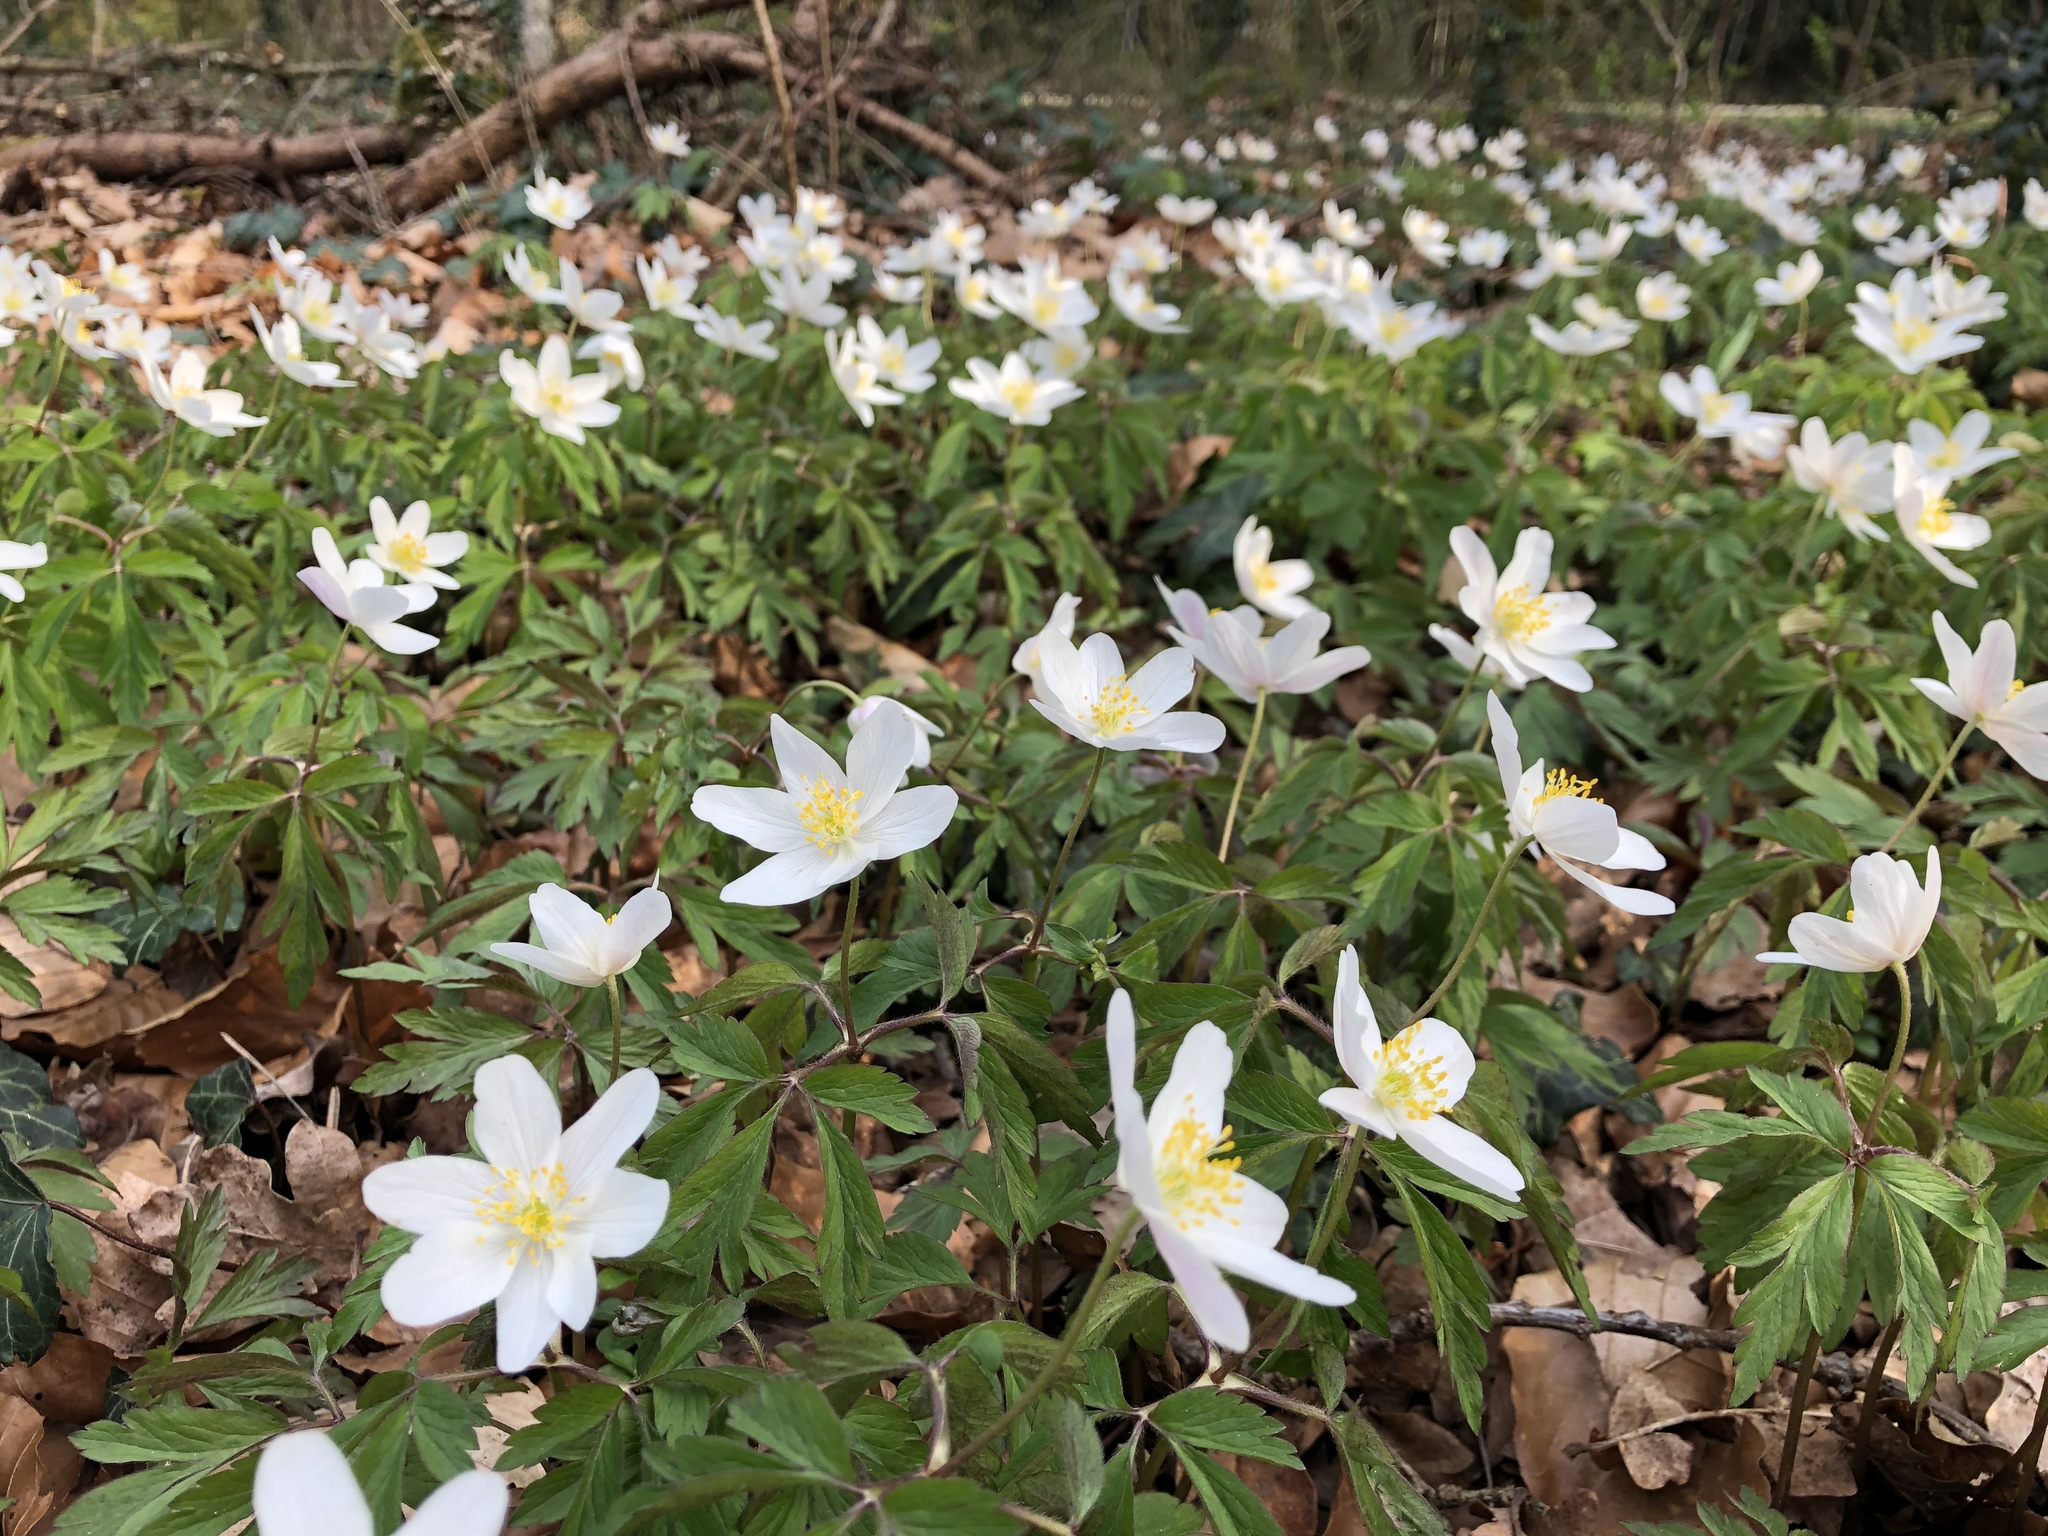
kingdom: Plantae
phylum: Tracheophyta
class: Magnoliopsida
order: Ranunculales
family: Ranunculaceae
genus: Anemone
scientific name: Anemone nemorosa
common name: Wood anemone
